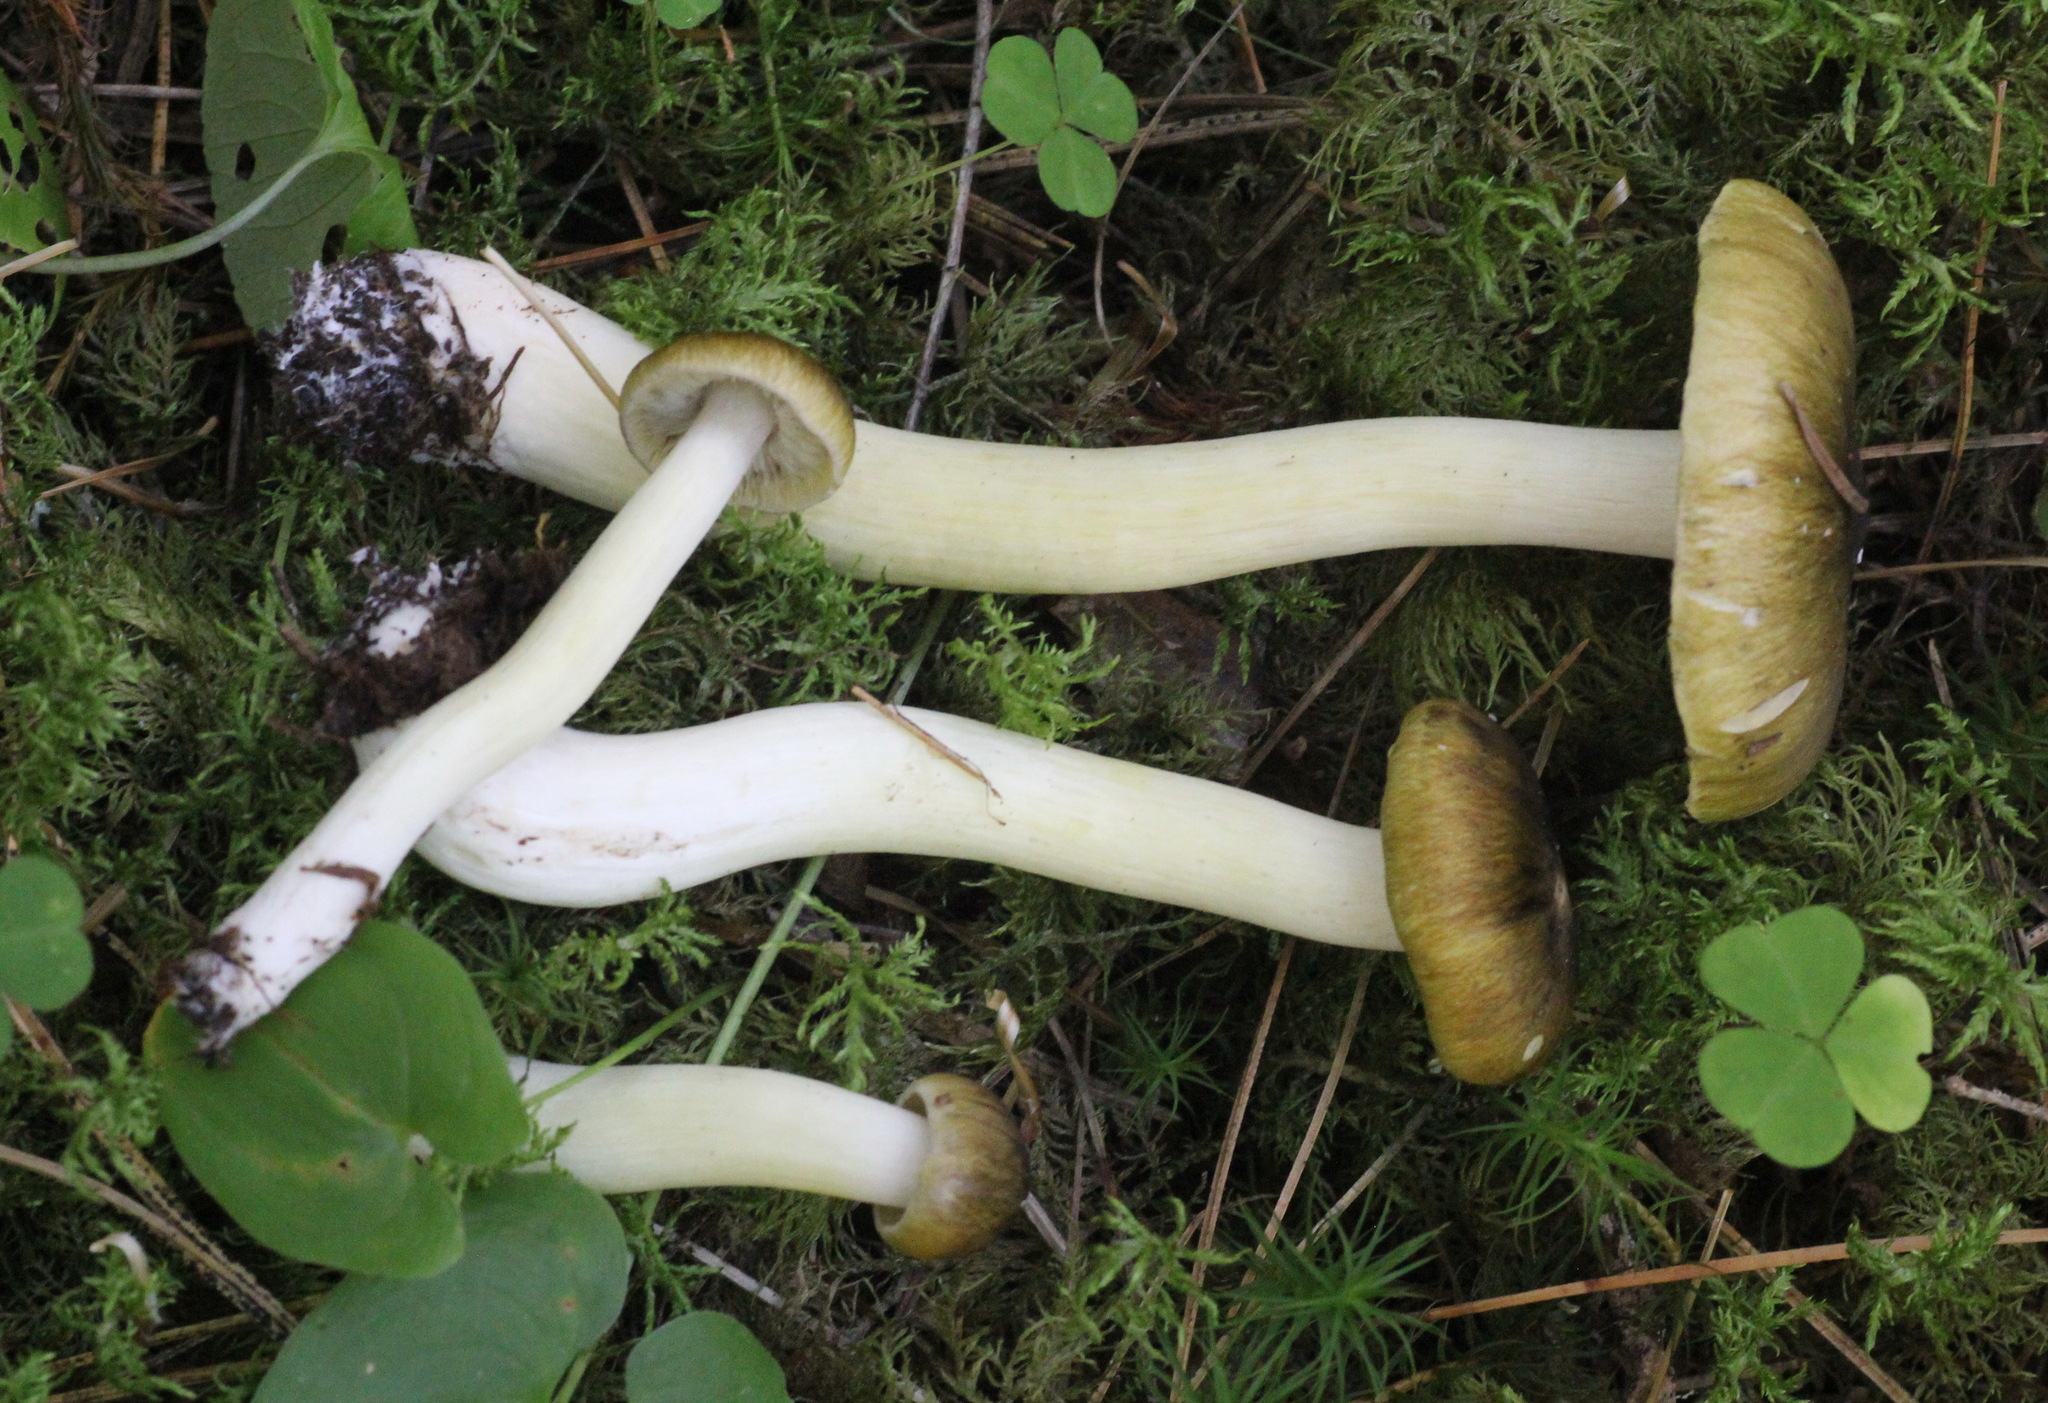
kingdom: Fungi
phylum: Basidiomycota
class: Agaricomycetes
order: Agaricales
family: Tricholomataceae
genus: Tricholoma
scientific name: Tricholoma viridilutescens
